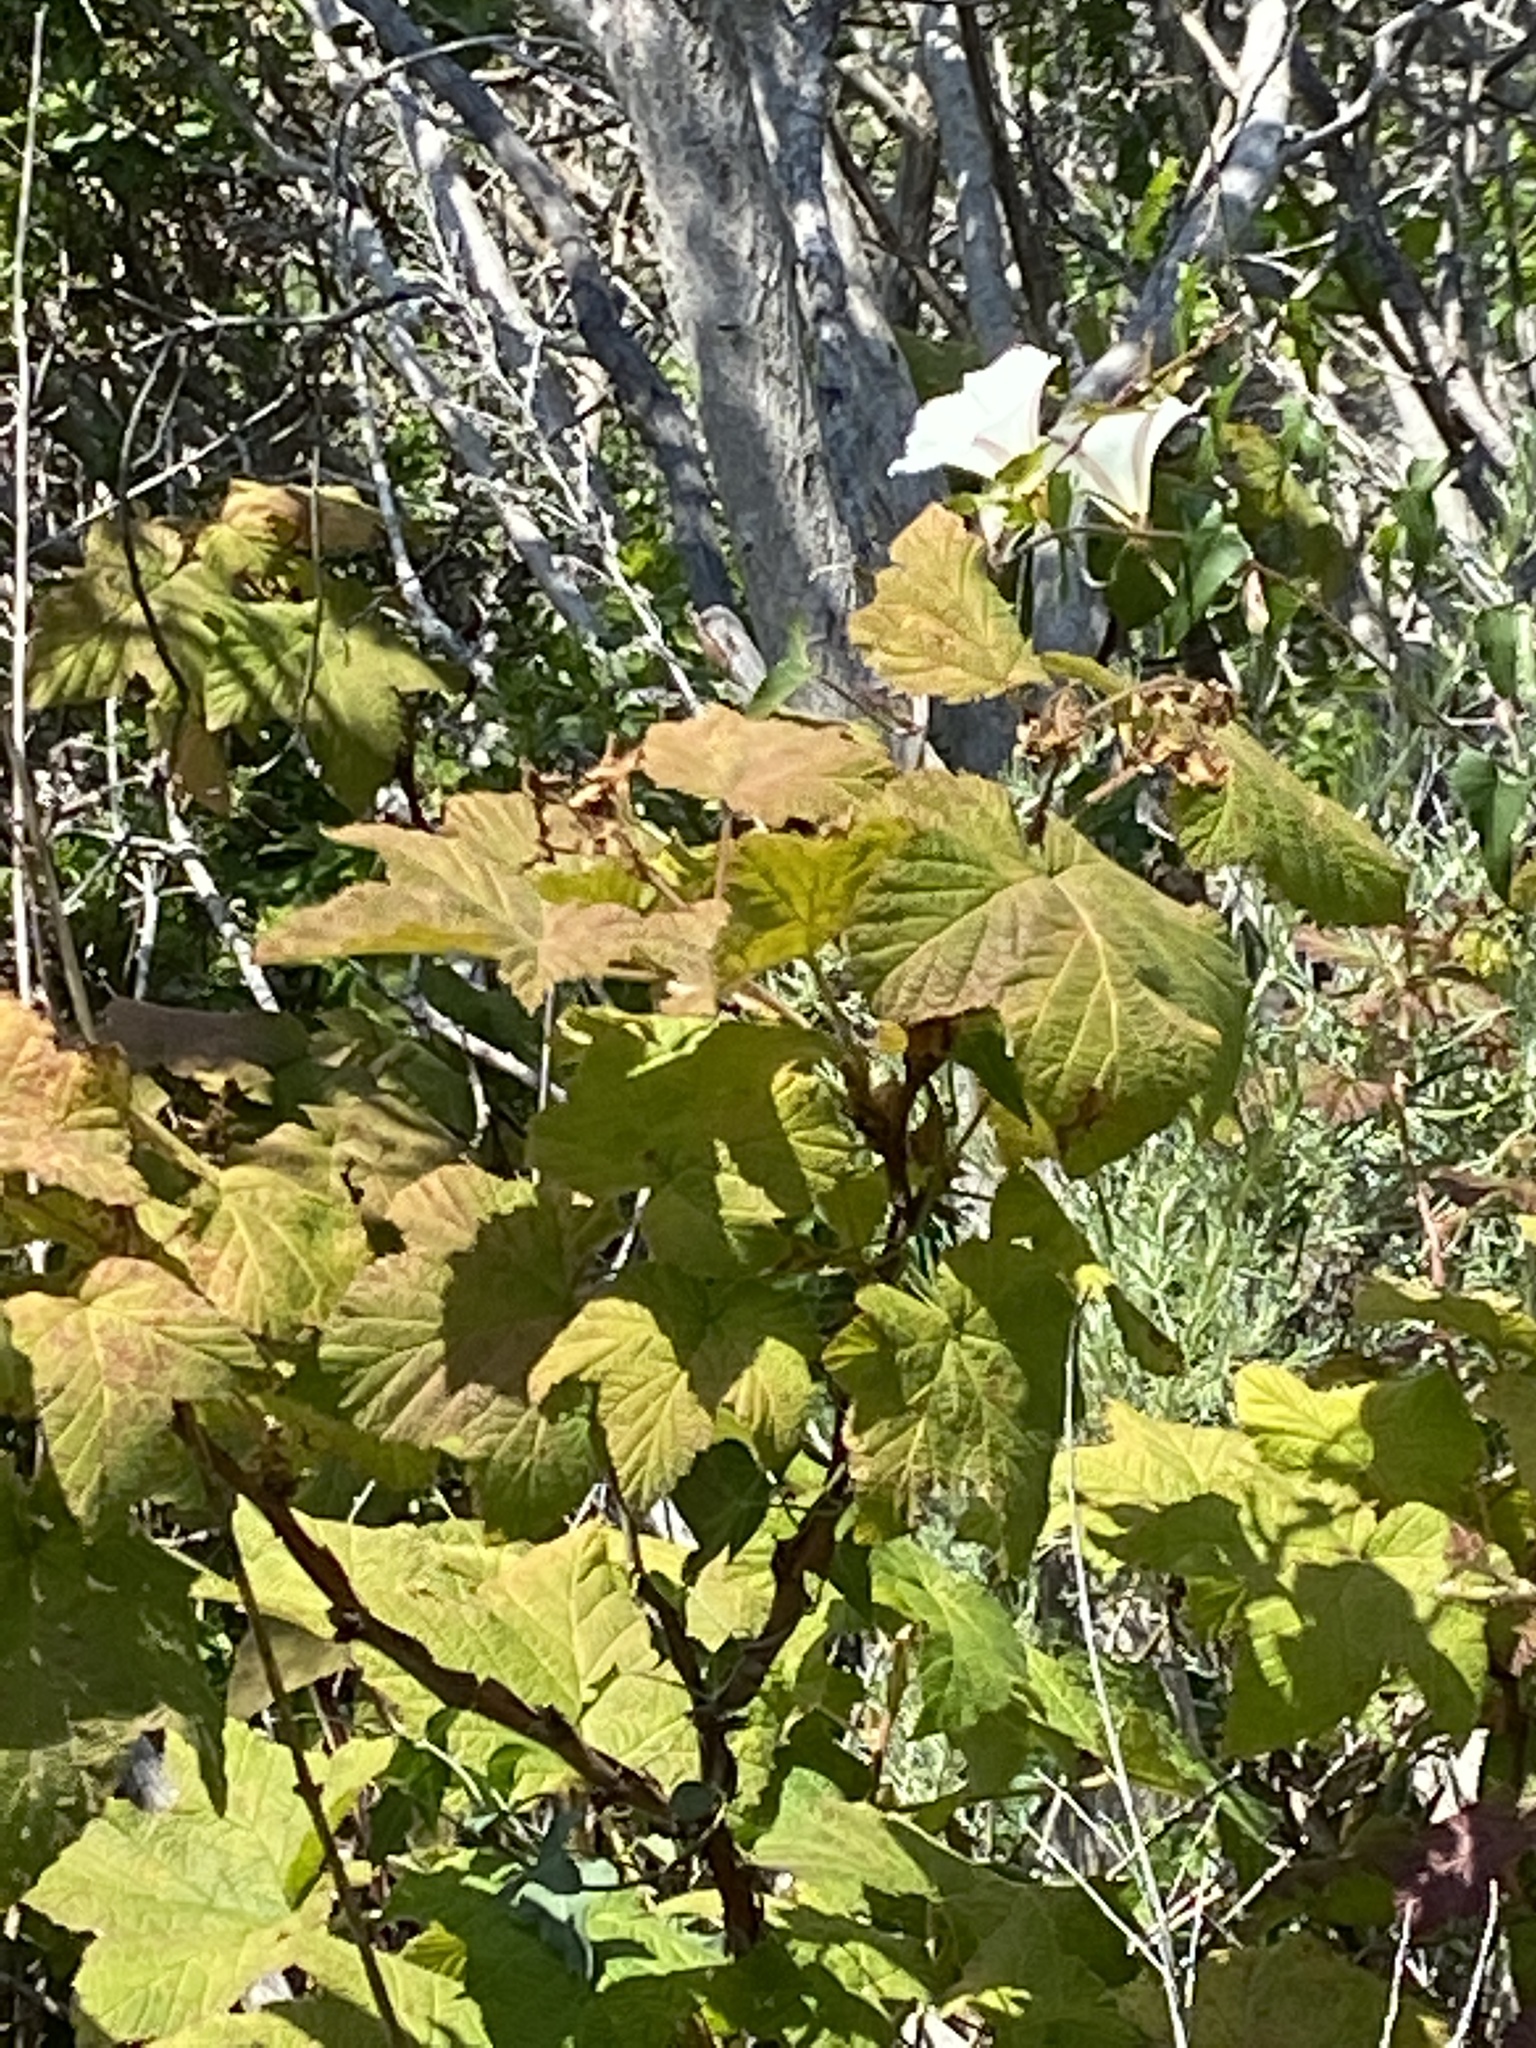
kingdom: Plantae
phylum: Tracheophyta
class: Magnoliopsida
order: Rosales
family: Rosaceae
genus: Rubus
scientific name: Rubus parviflorus
